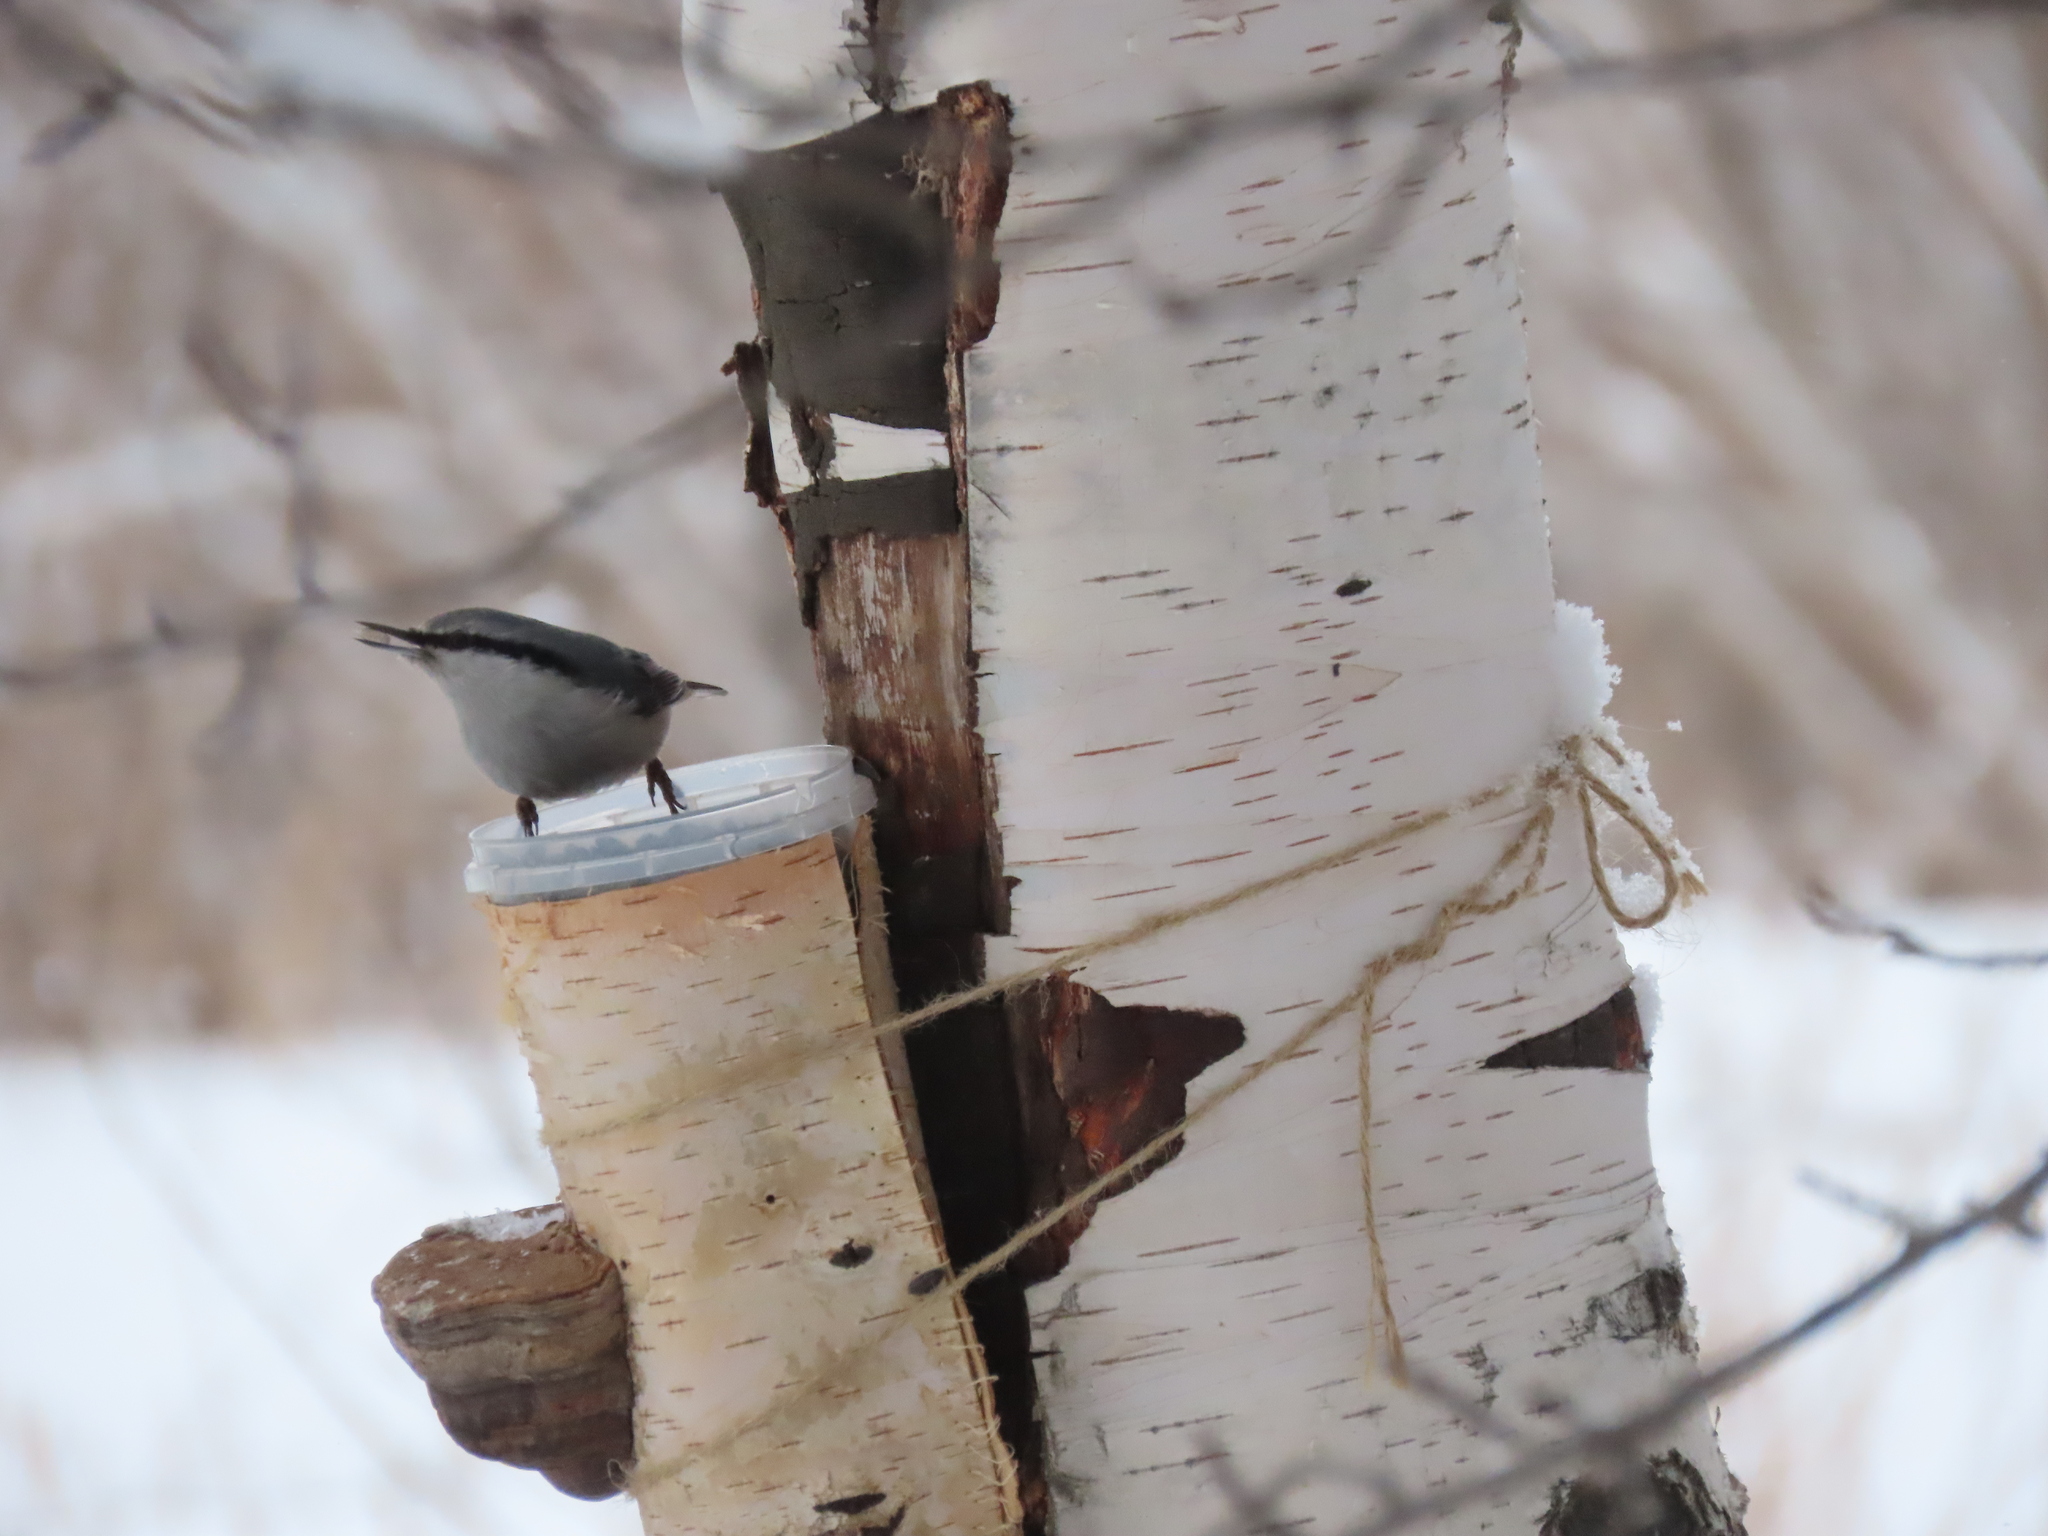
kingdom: Animalia
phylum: Chordata
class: Aves
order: Passeriformes
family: Sittidae
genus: Sitta
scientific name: Sitta europaea
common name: Eurasian nuthatch
